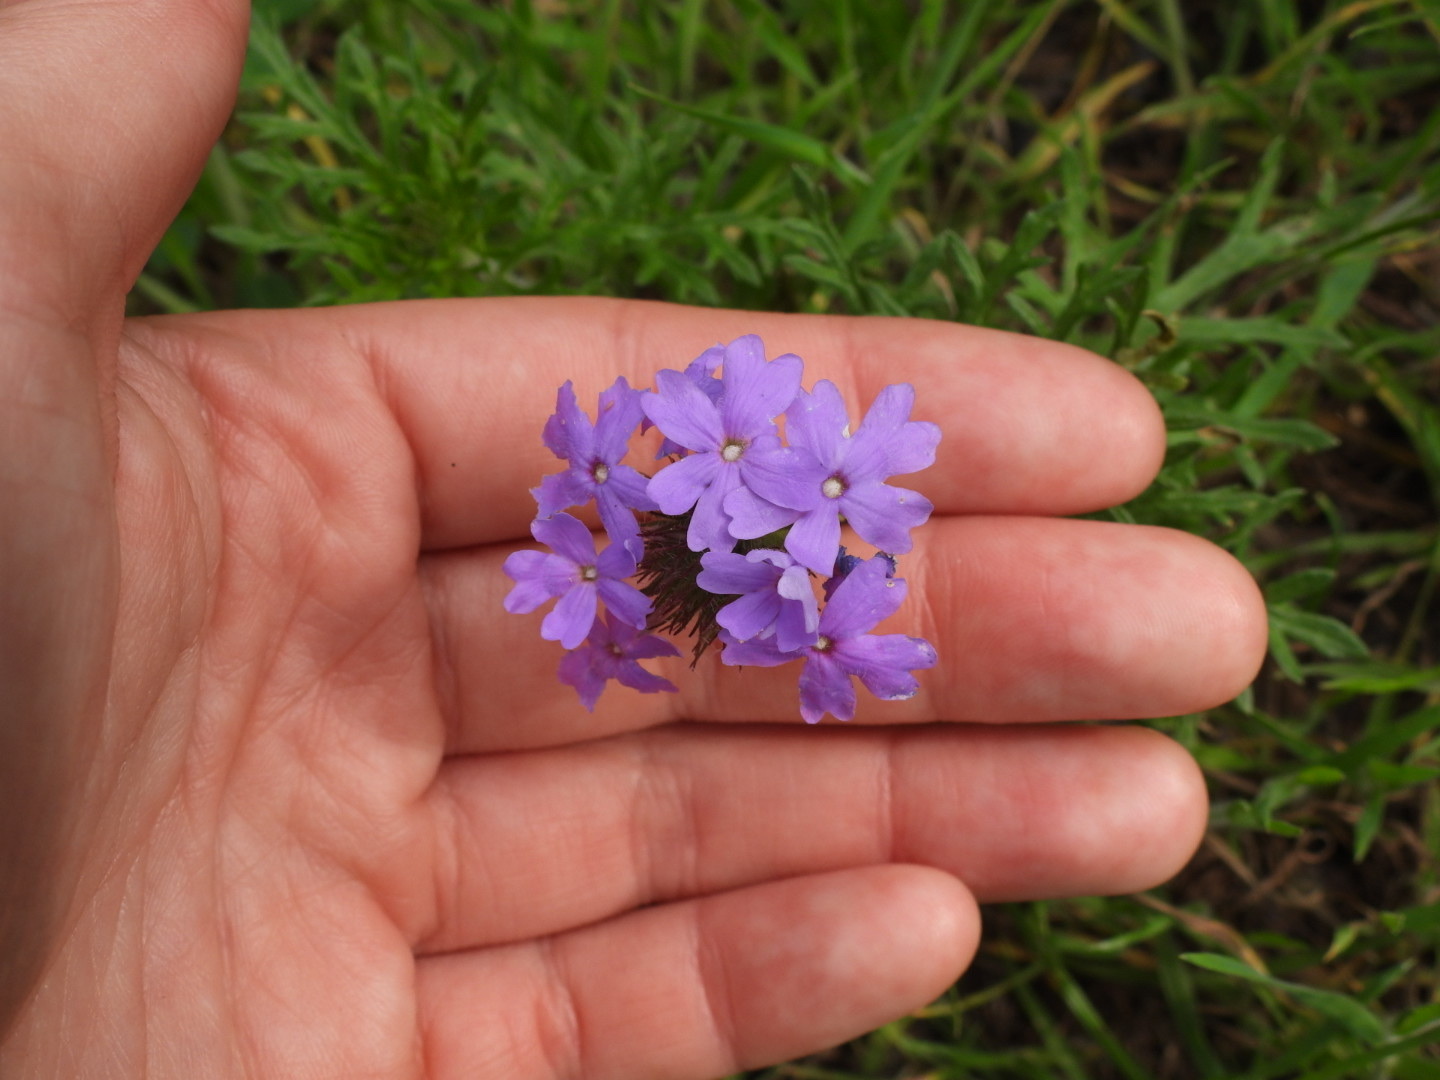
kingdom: Plantae
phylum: Tracheophyta
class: Magnoliopsida
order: Lamiales
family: Verbenaceae
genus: Verbena
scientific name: Verbena bipinnatifida
